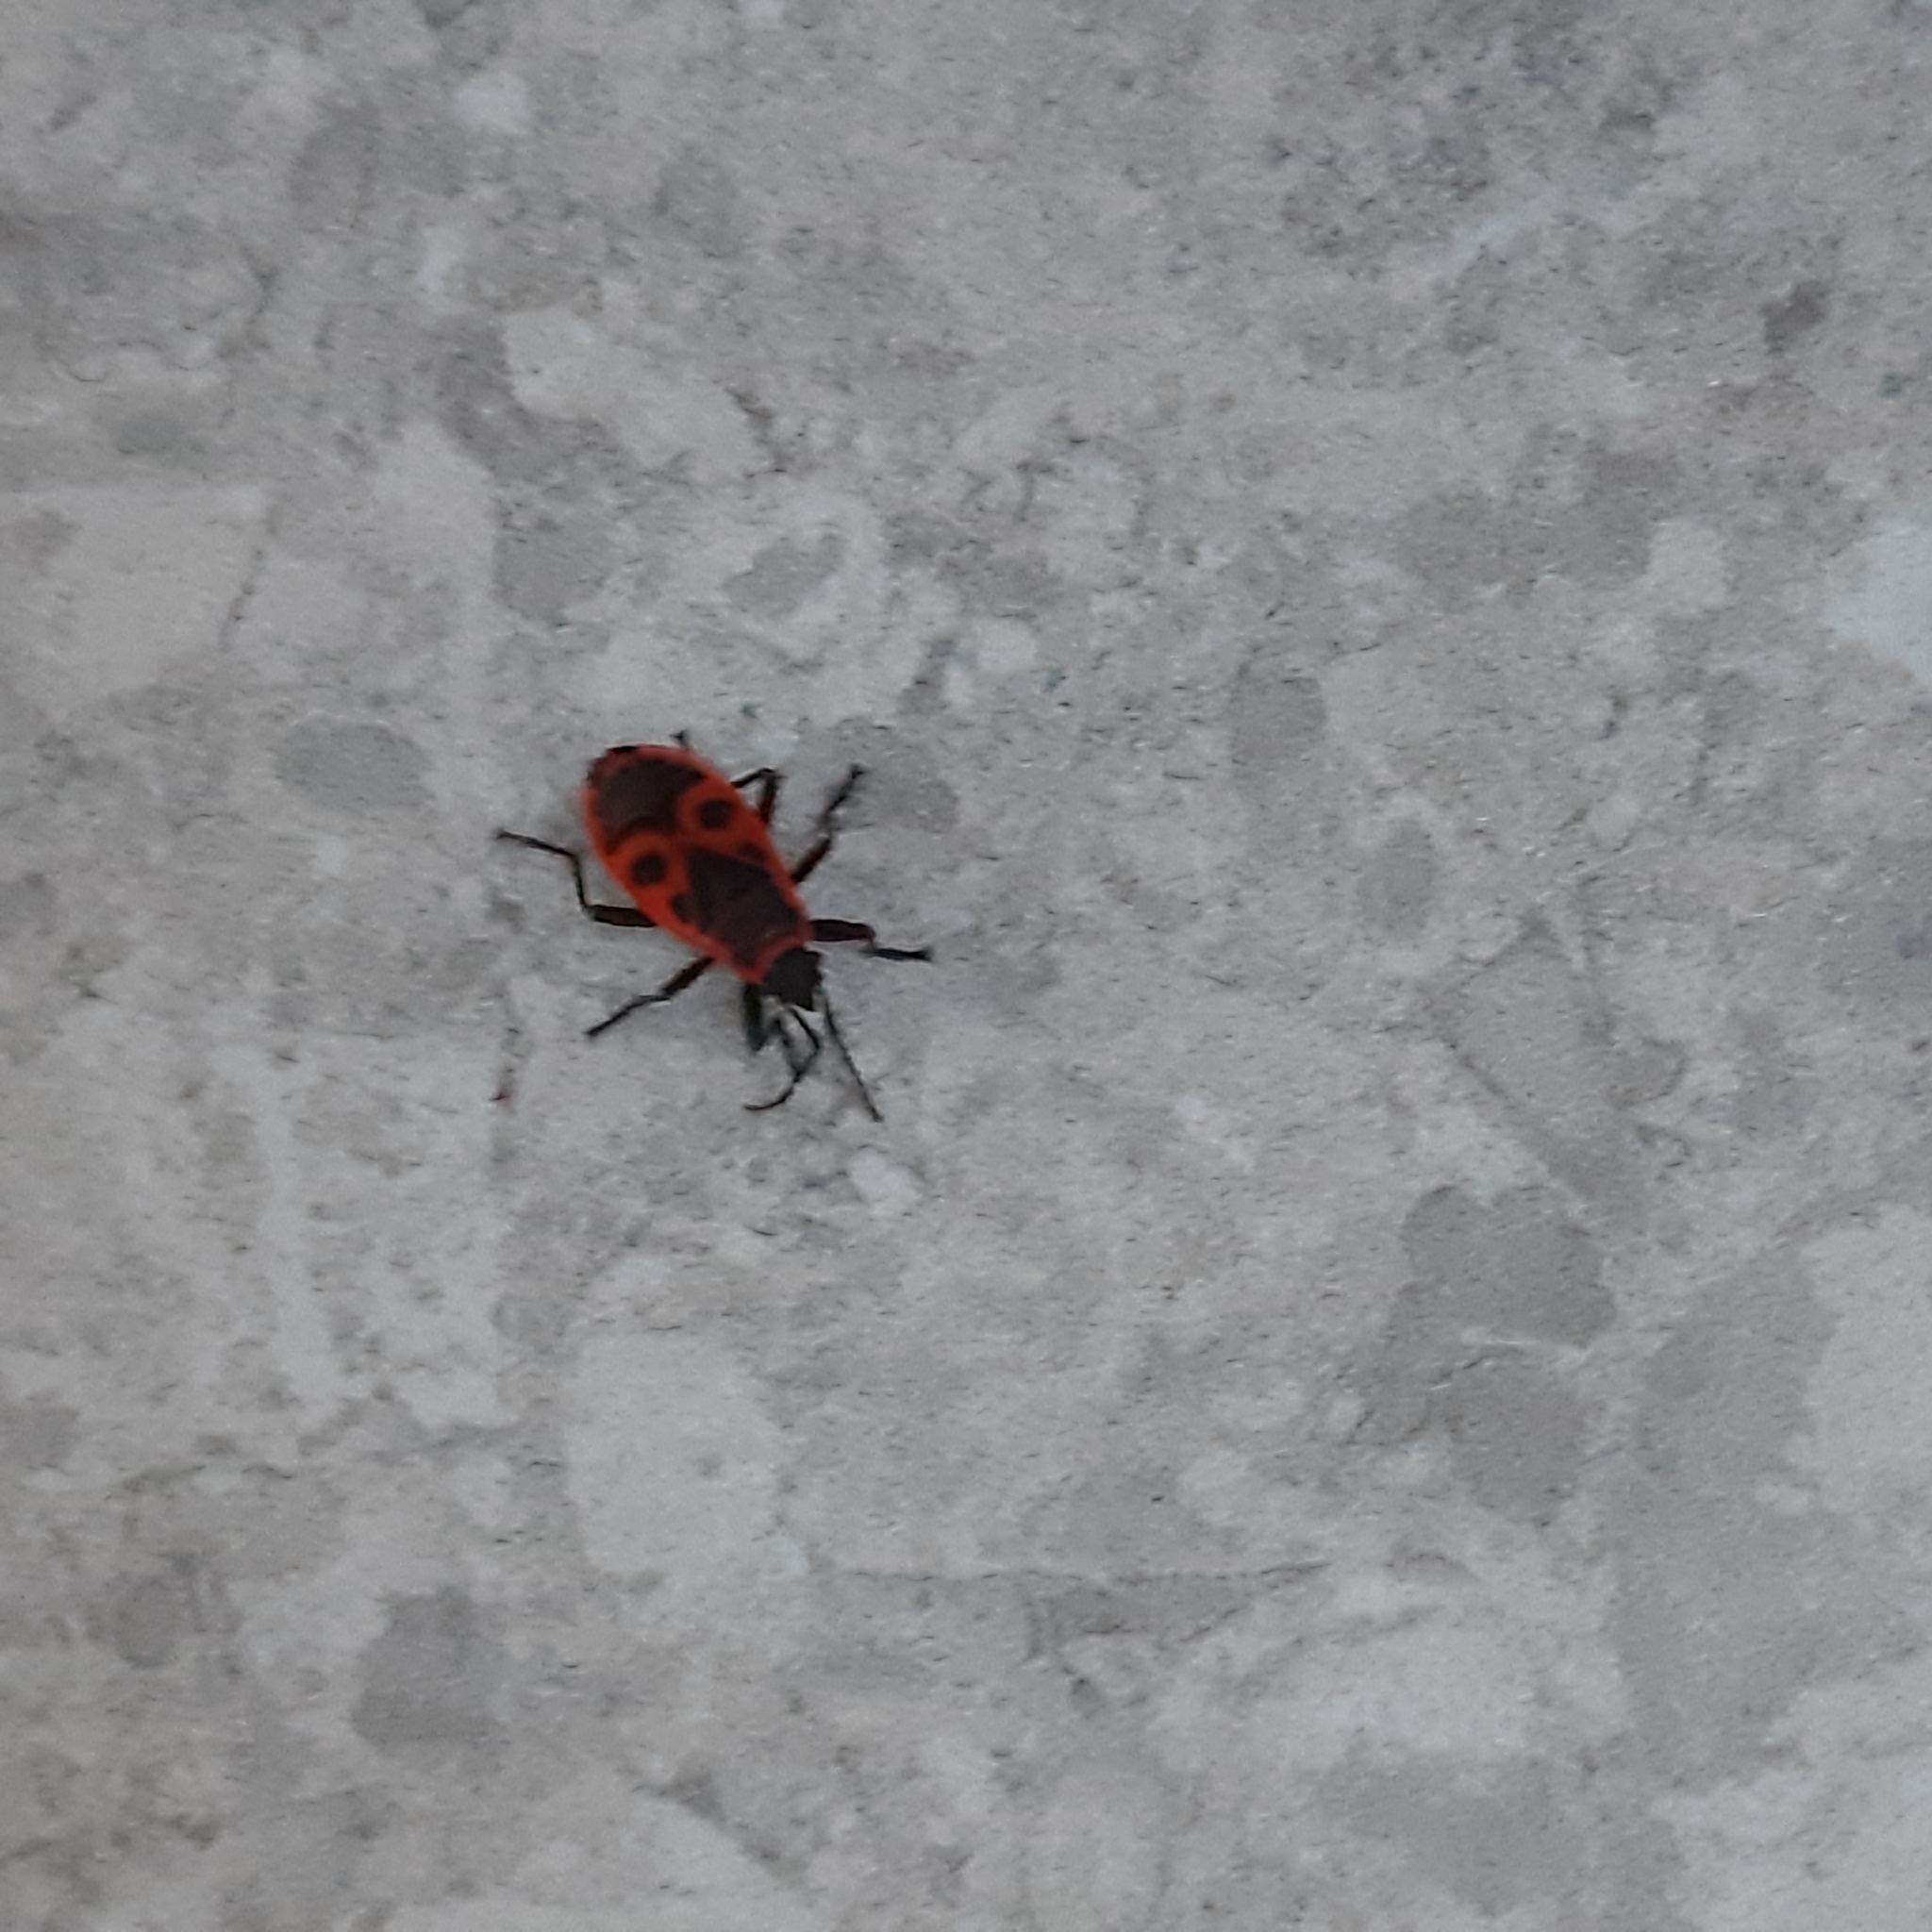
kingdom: Animalia
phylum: Arthropoda
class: Insecta
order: Hemiptera
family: Pyrrhocoridae
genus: Pyrrhocoris
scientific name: Pyrrhocoris apterus
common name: Firebug
